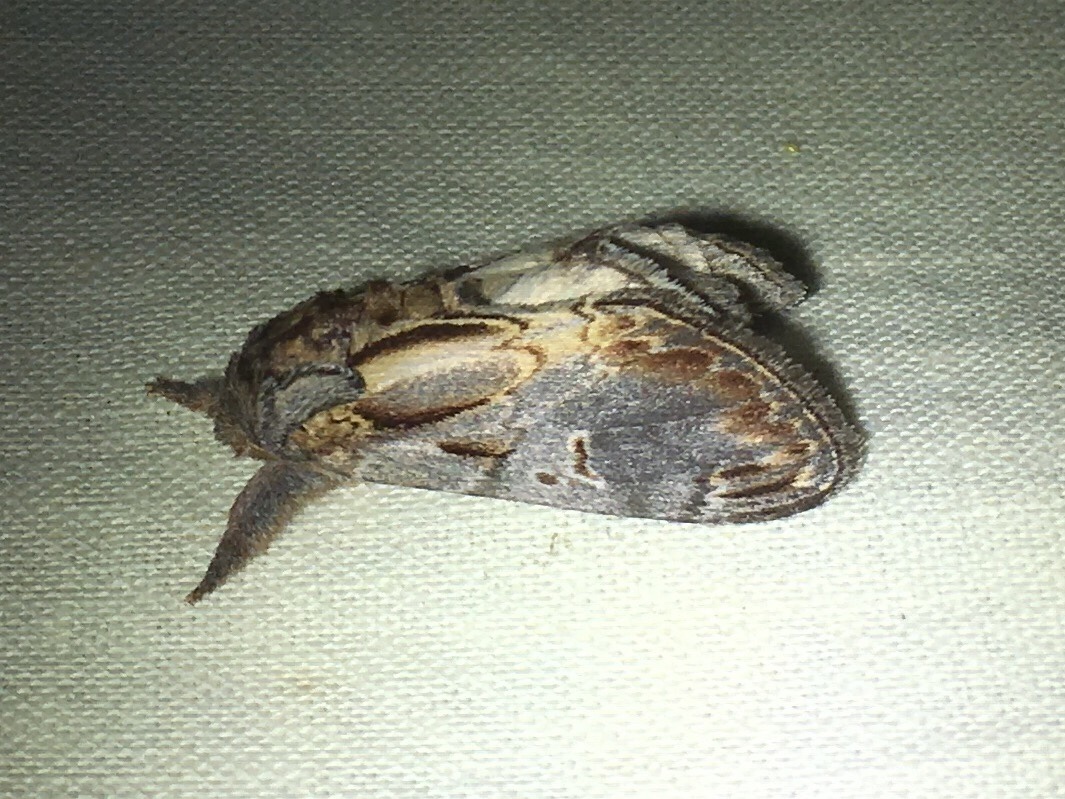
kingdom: Animalia
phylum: Arthropoda
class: Insecta
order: Lepidoptera
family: Notodontidae
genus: Notodonta
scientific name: Notodonta scitipennis
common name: Finned-willow prominent moth
